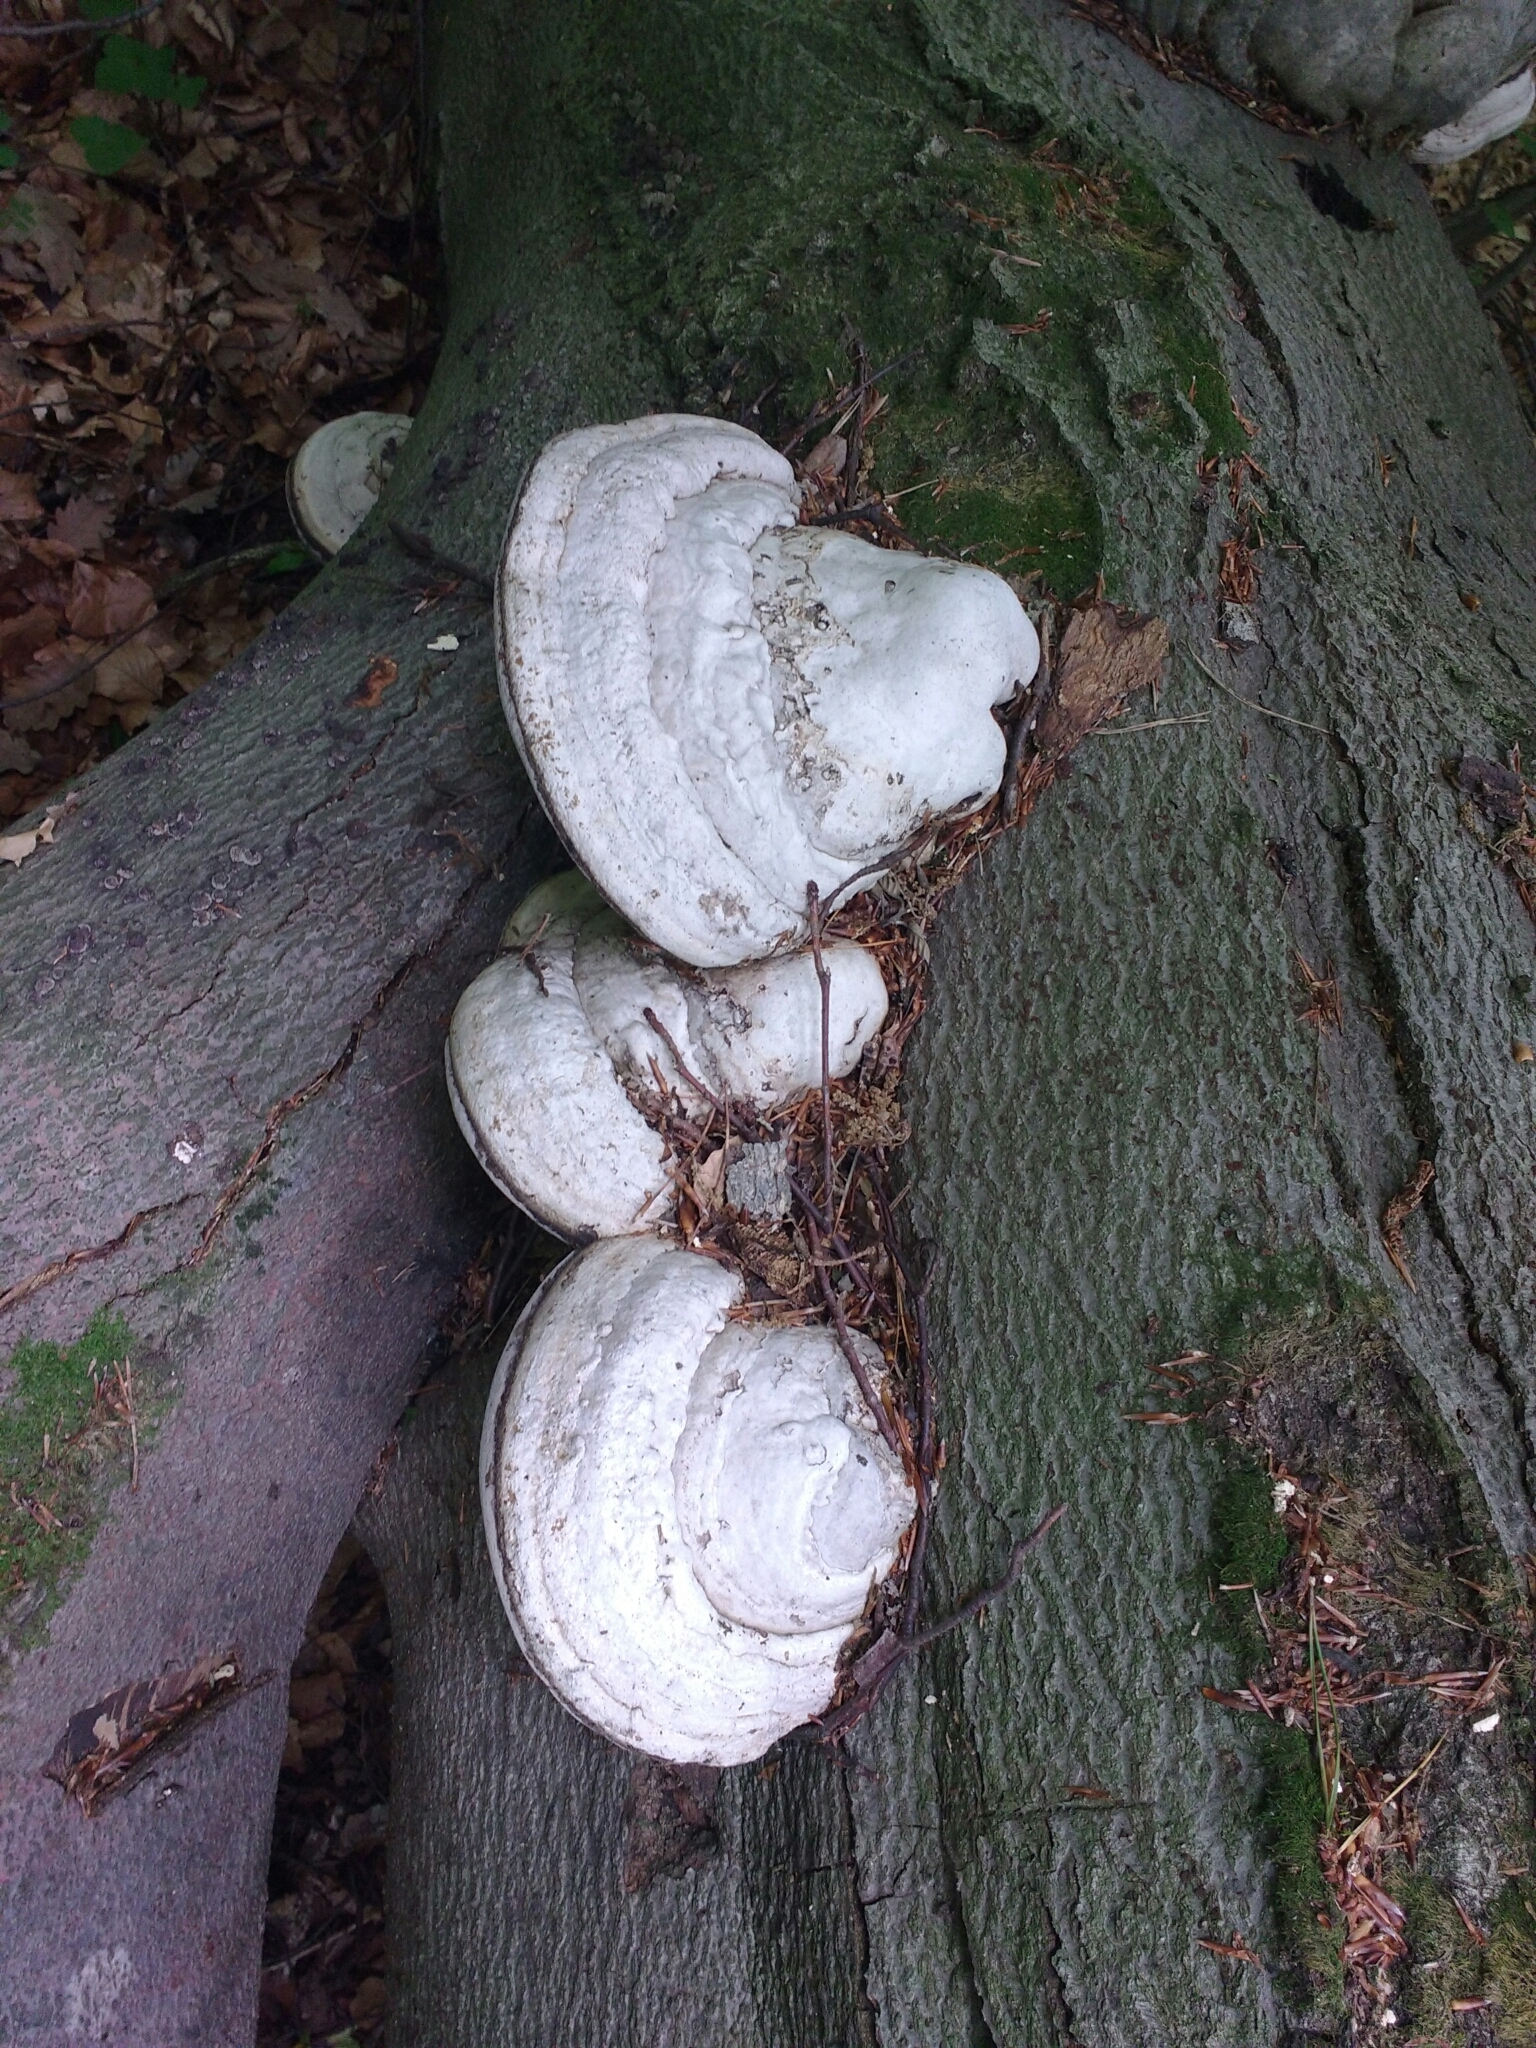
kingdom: Fungi
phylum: Basidiomycota
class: Agaricomycetes
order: Polyporales
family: Polyporaceae
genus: Fomes
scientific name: Fomes fomentarius
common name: Hoof fungus
